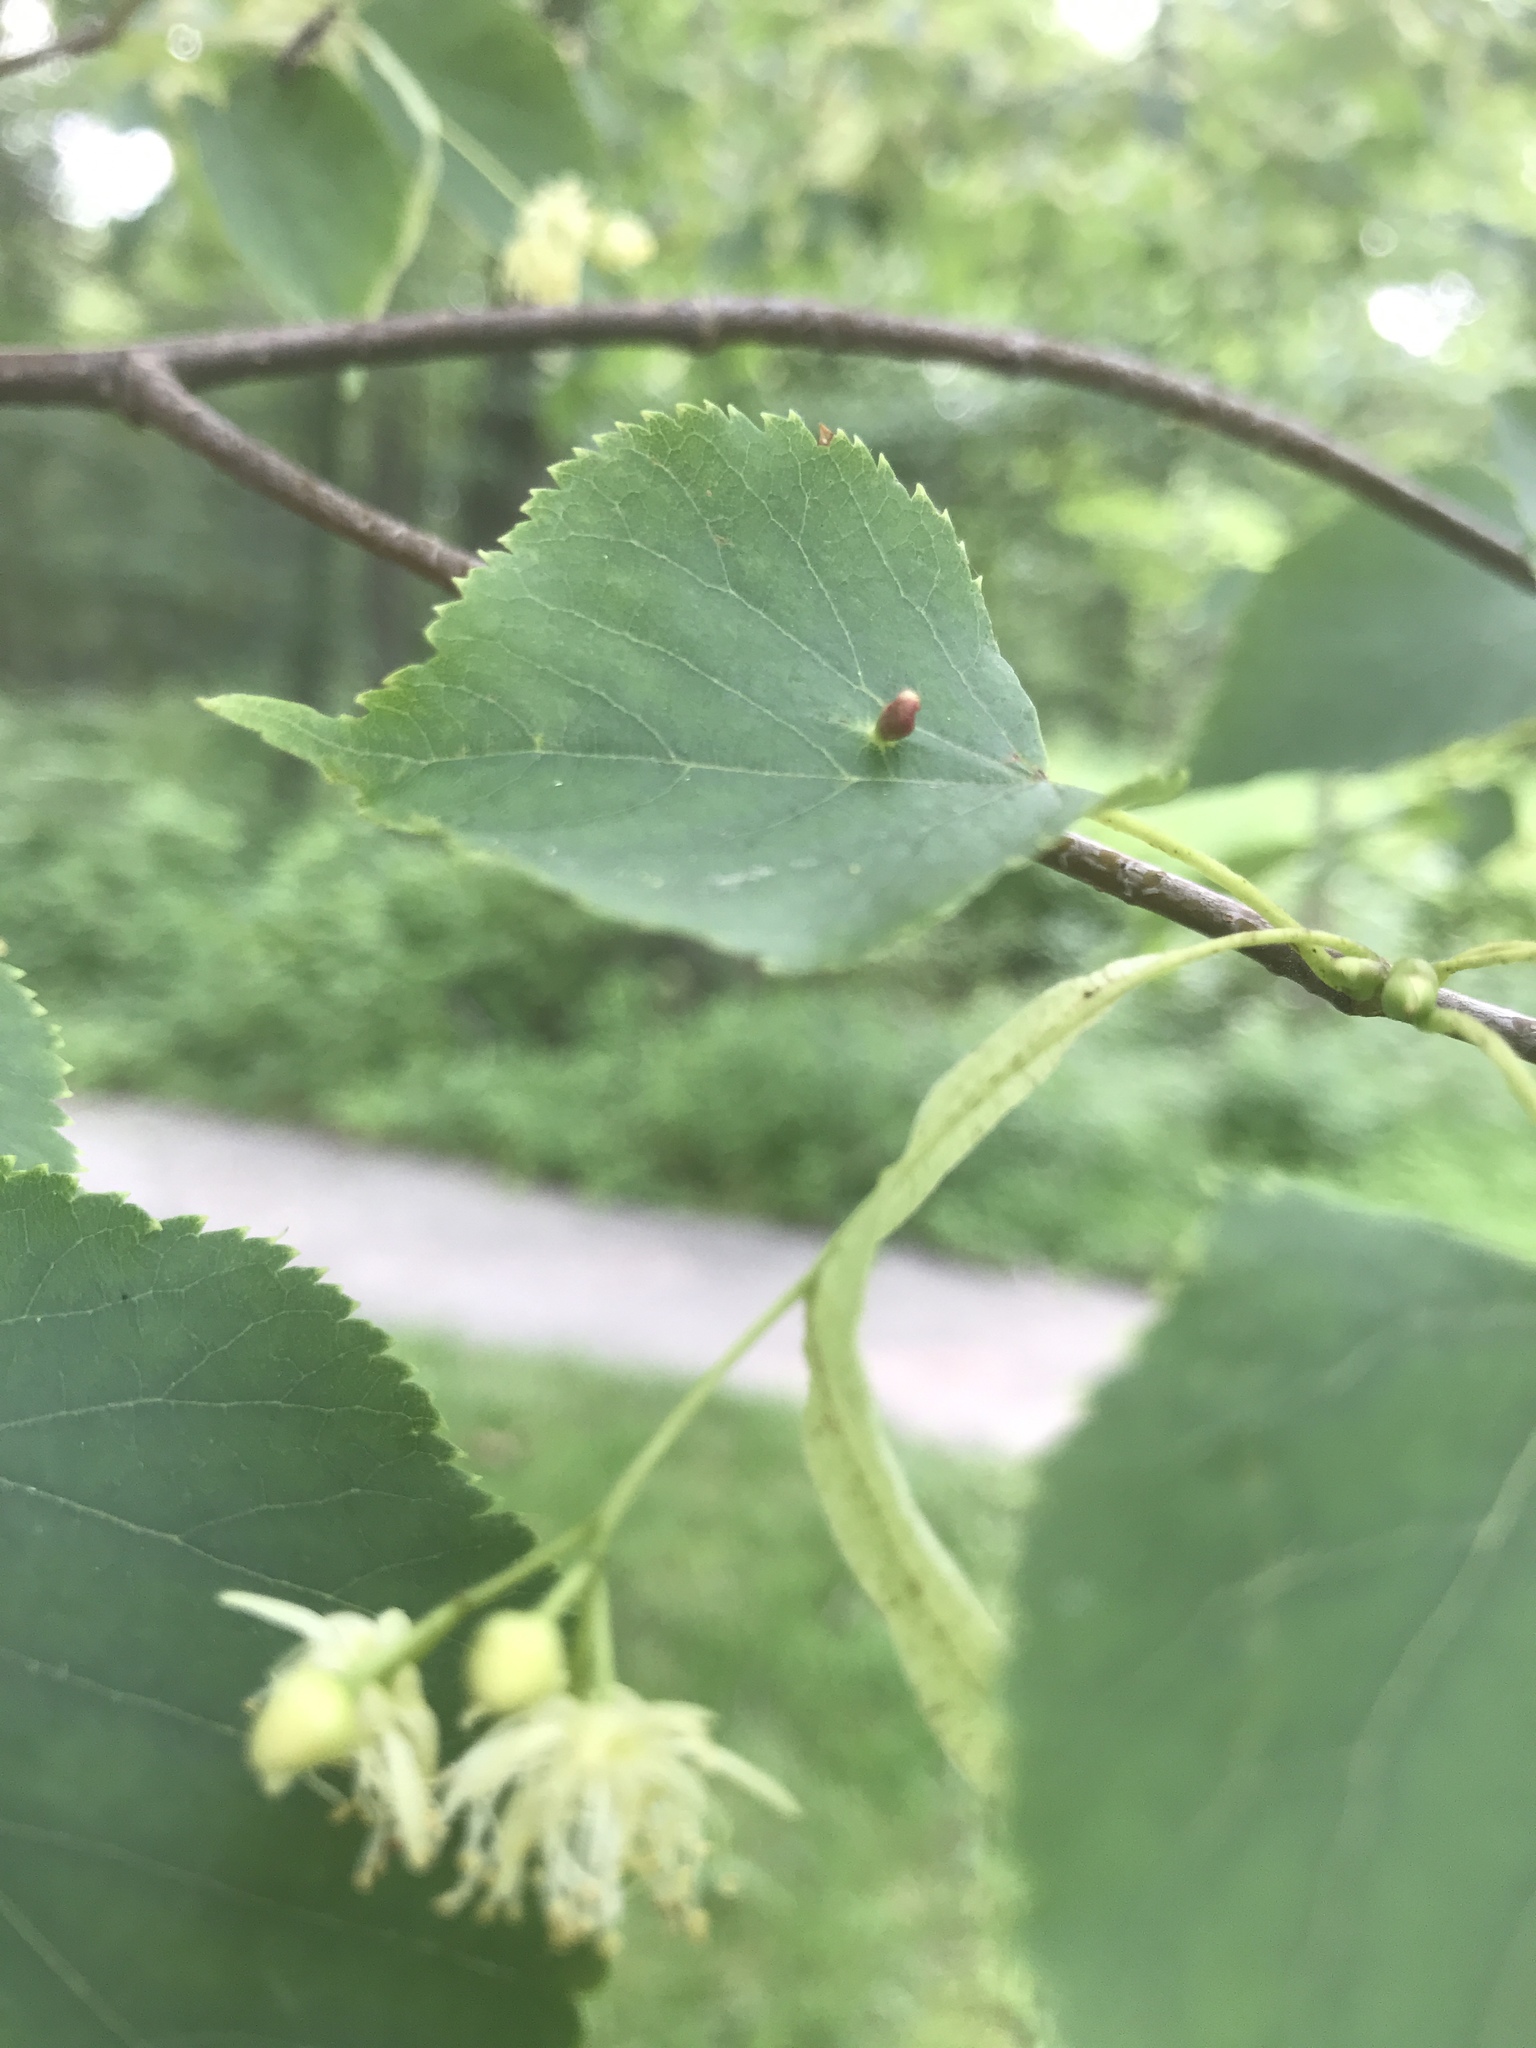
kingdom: Animalia
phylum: Arthropoda
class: Arachnida
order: Trombidiformes
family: Eriophyidae
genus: Eriophyes
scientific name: Eriophyes tiliae
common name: Red nail gall mite
